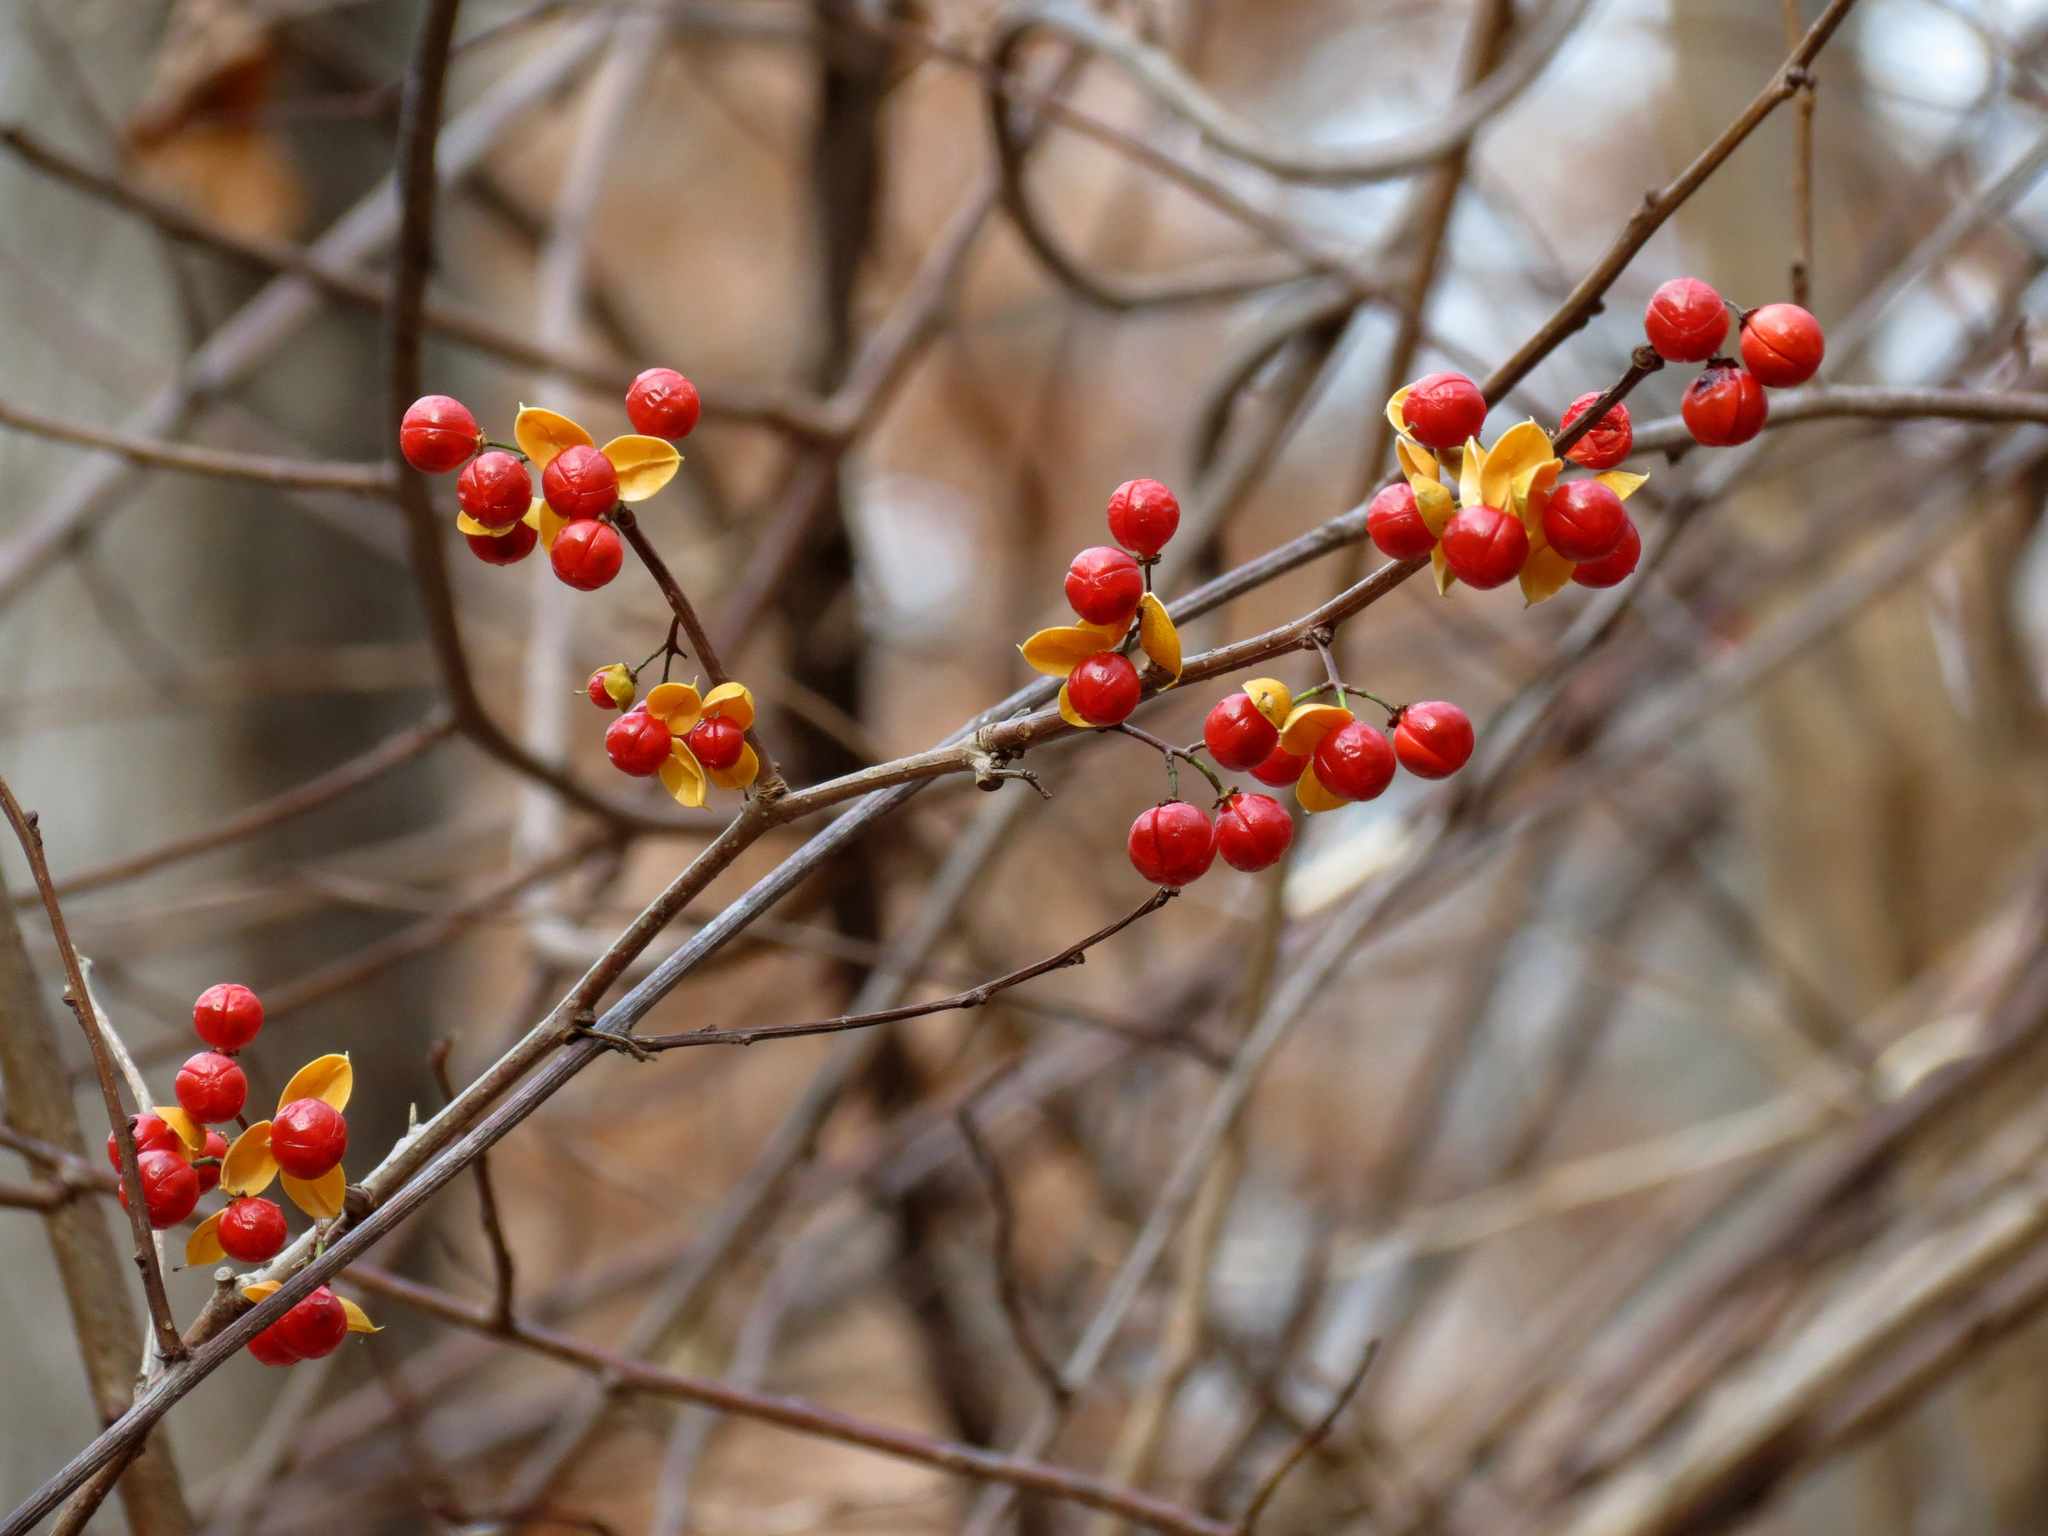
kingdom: Plantae
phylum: Tracheophyta
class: Magnoliopsida
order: Celastrales
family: Celastraceae
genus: Celastrus
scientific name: Celastrus orbiculatus
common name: Oriental bittersweet
